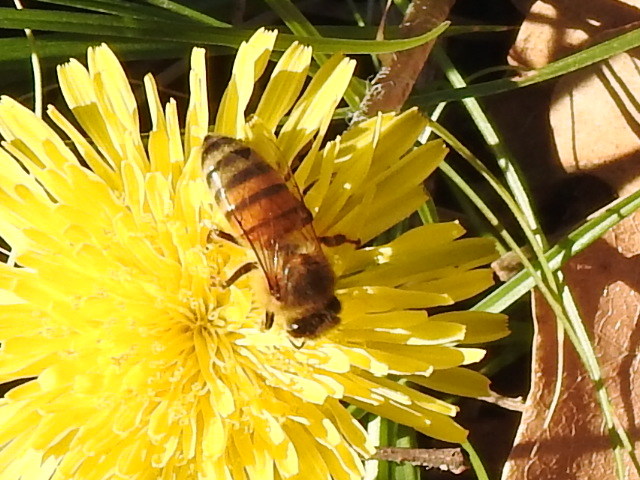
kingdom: Animalia
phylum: Arthropoda
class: Insecta
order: Hymenoptera
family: Apidae
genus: Apis
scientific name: Apis mellifera
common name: Honey bee
